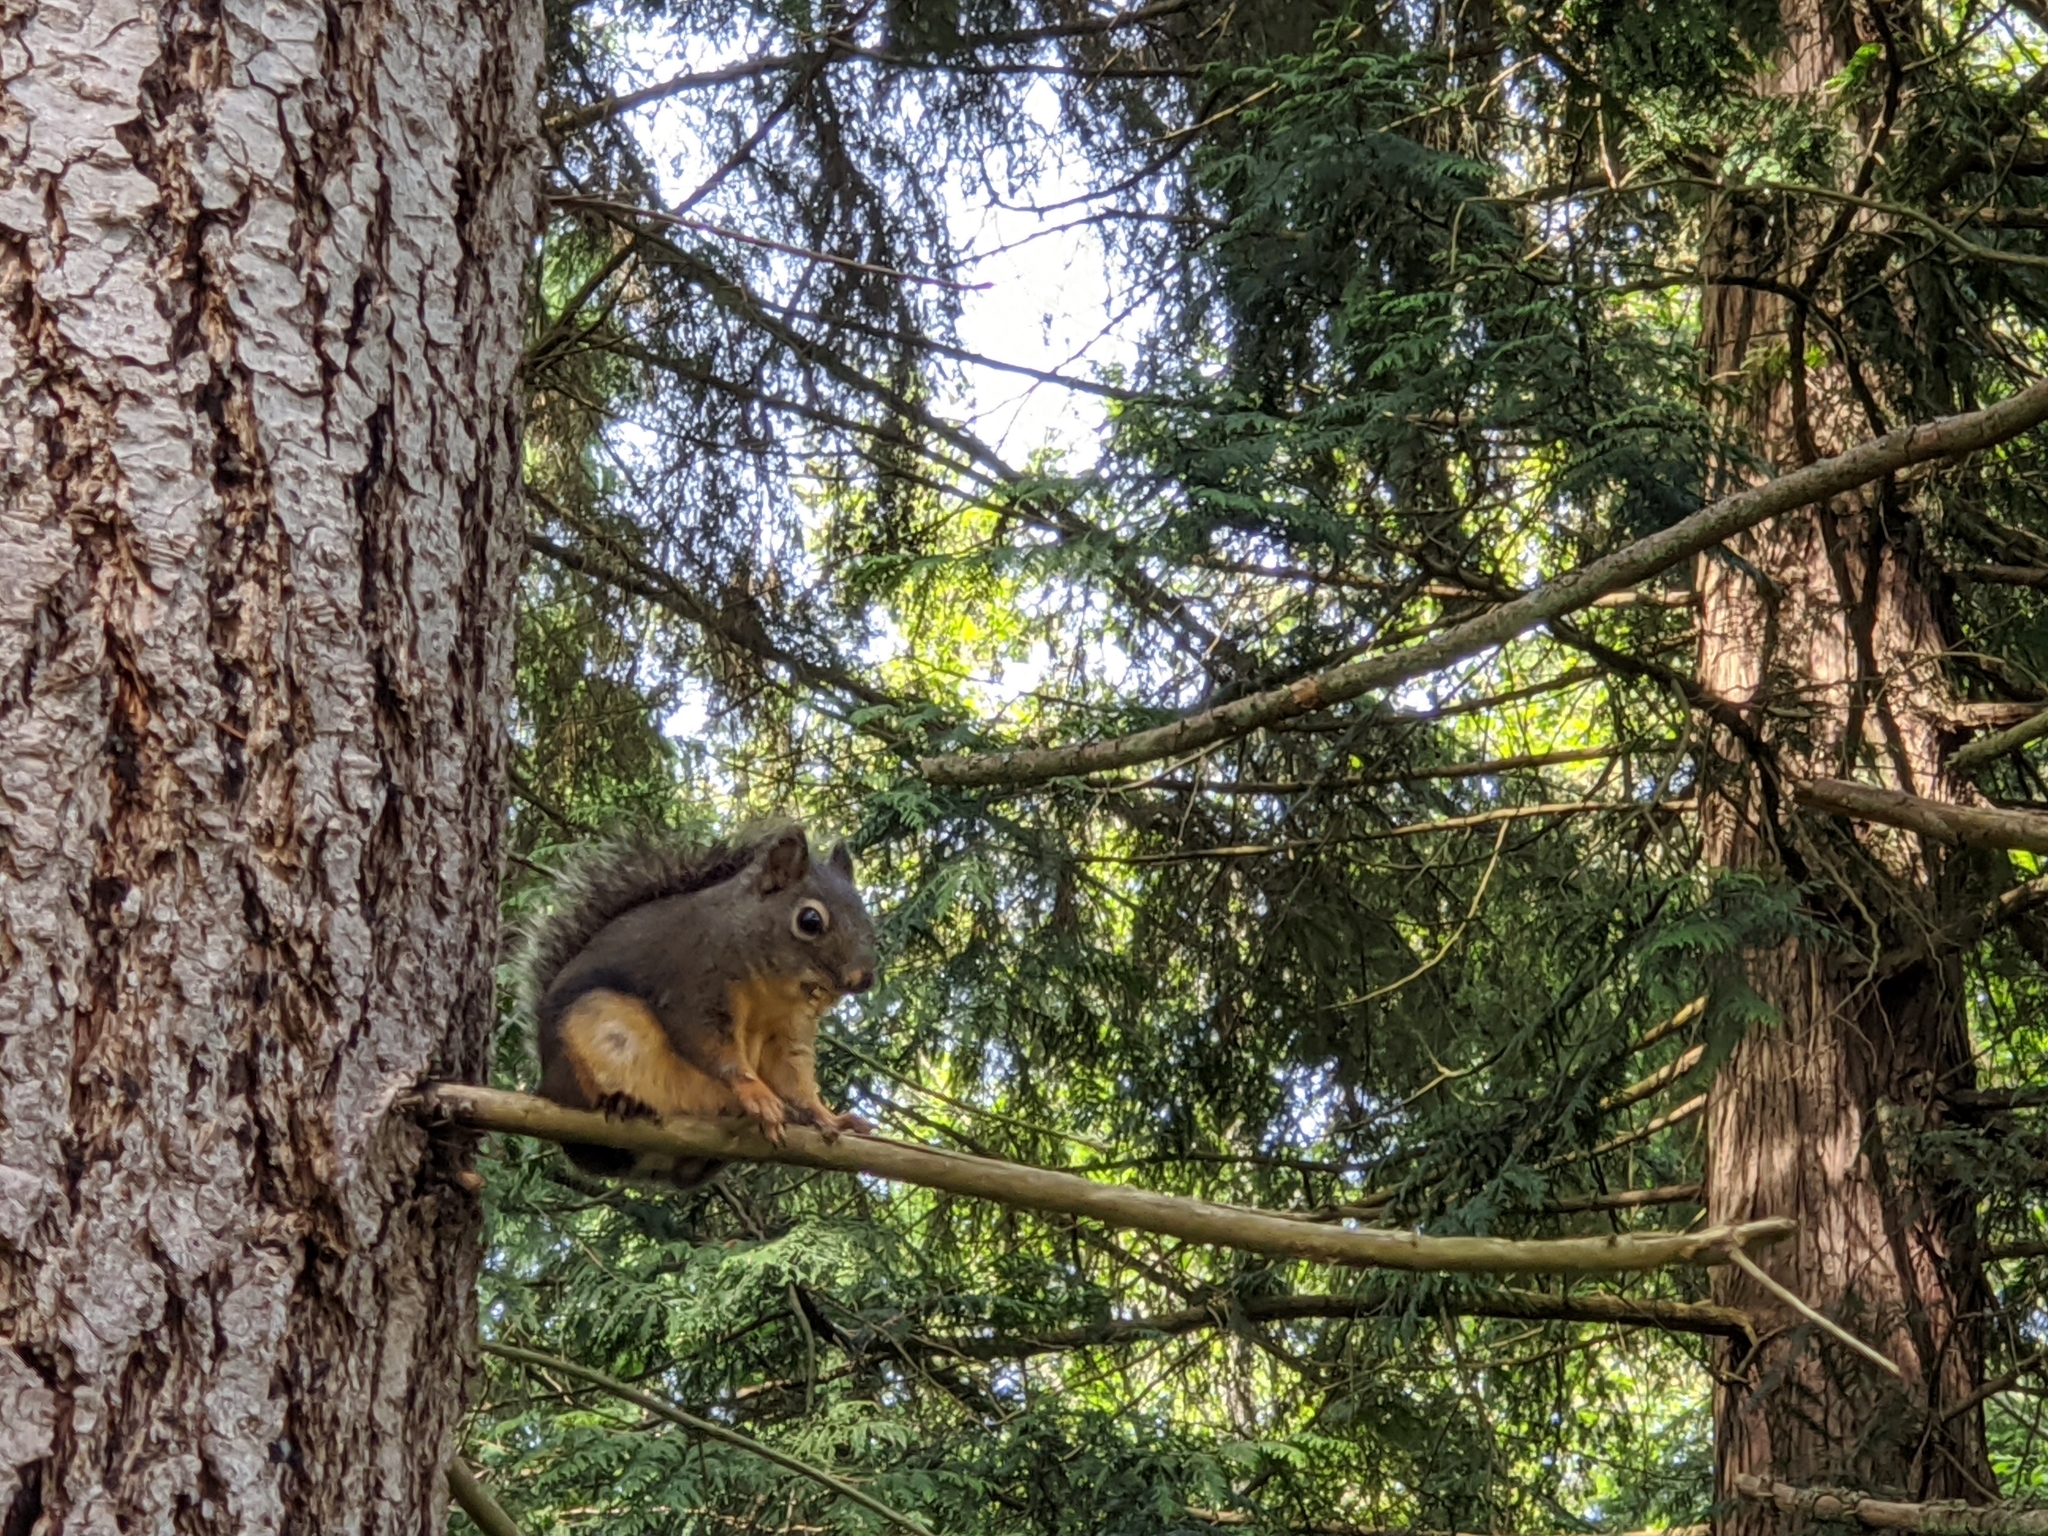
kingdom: Animalia
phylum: Chordata
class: Mammalia
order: Rodentia
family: Sciuridae
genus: Tamiasciurus
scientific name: Tamiasciurus douglasii
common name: Douglas's squirrel
